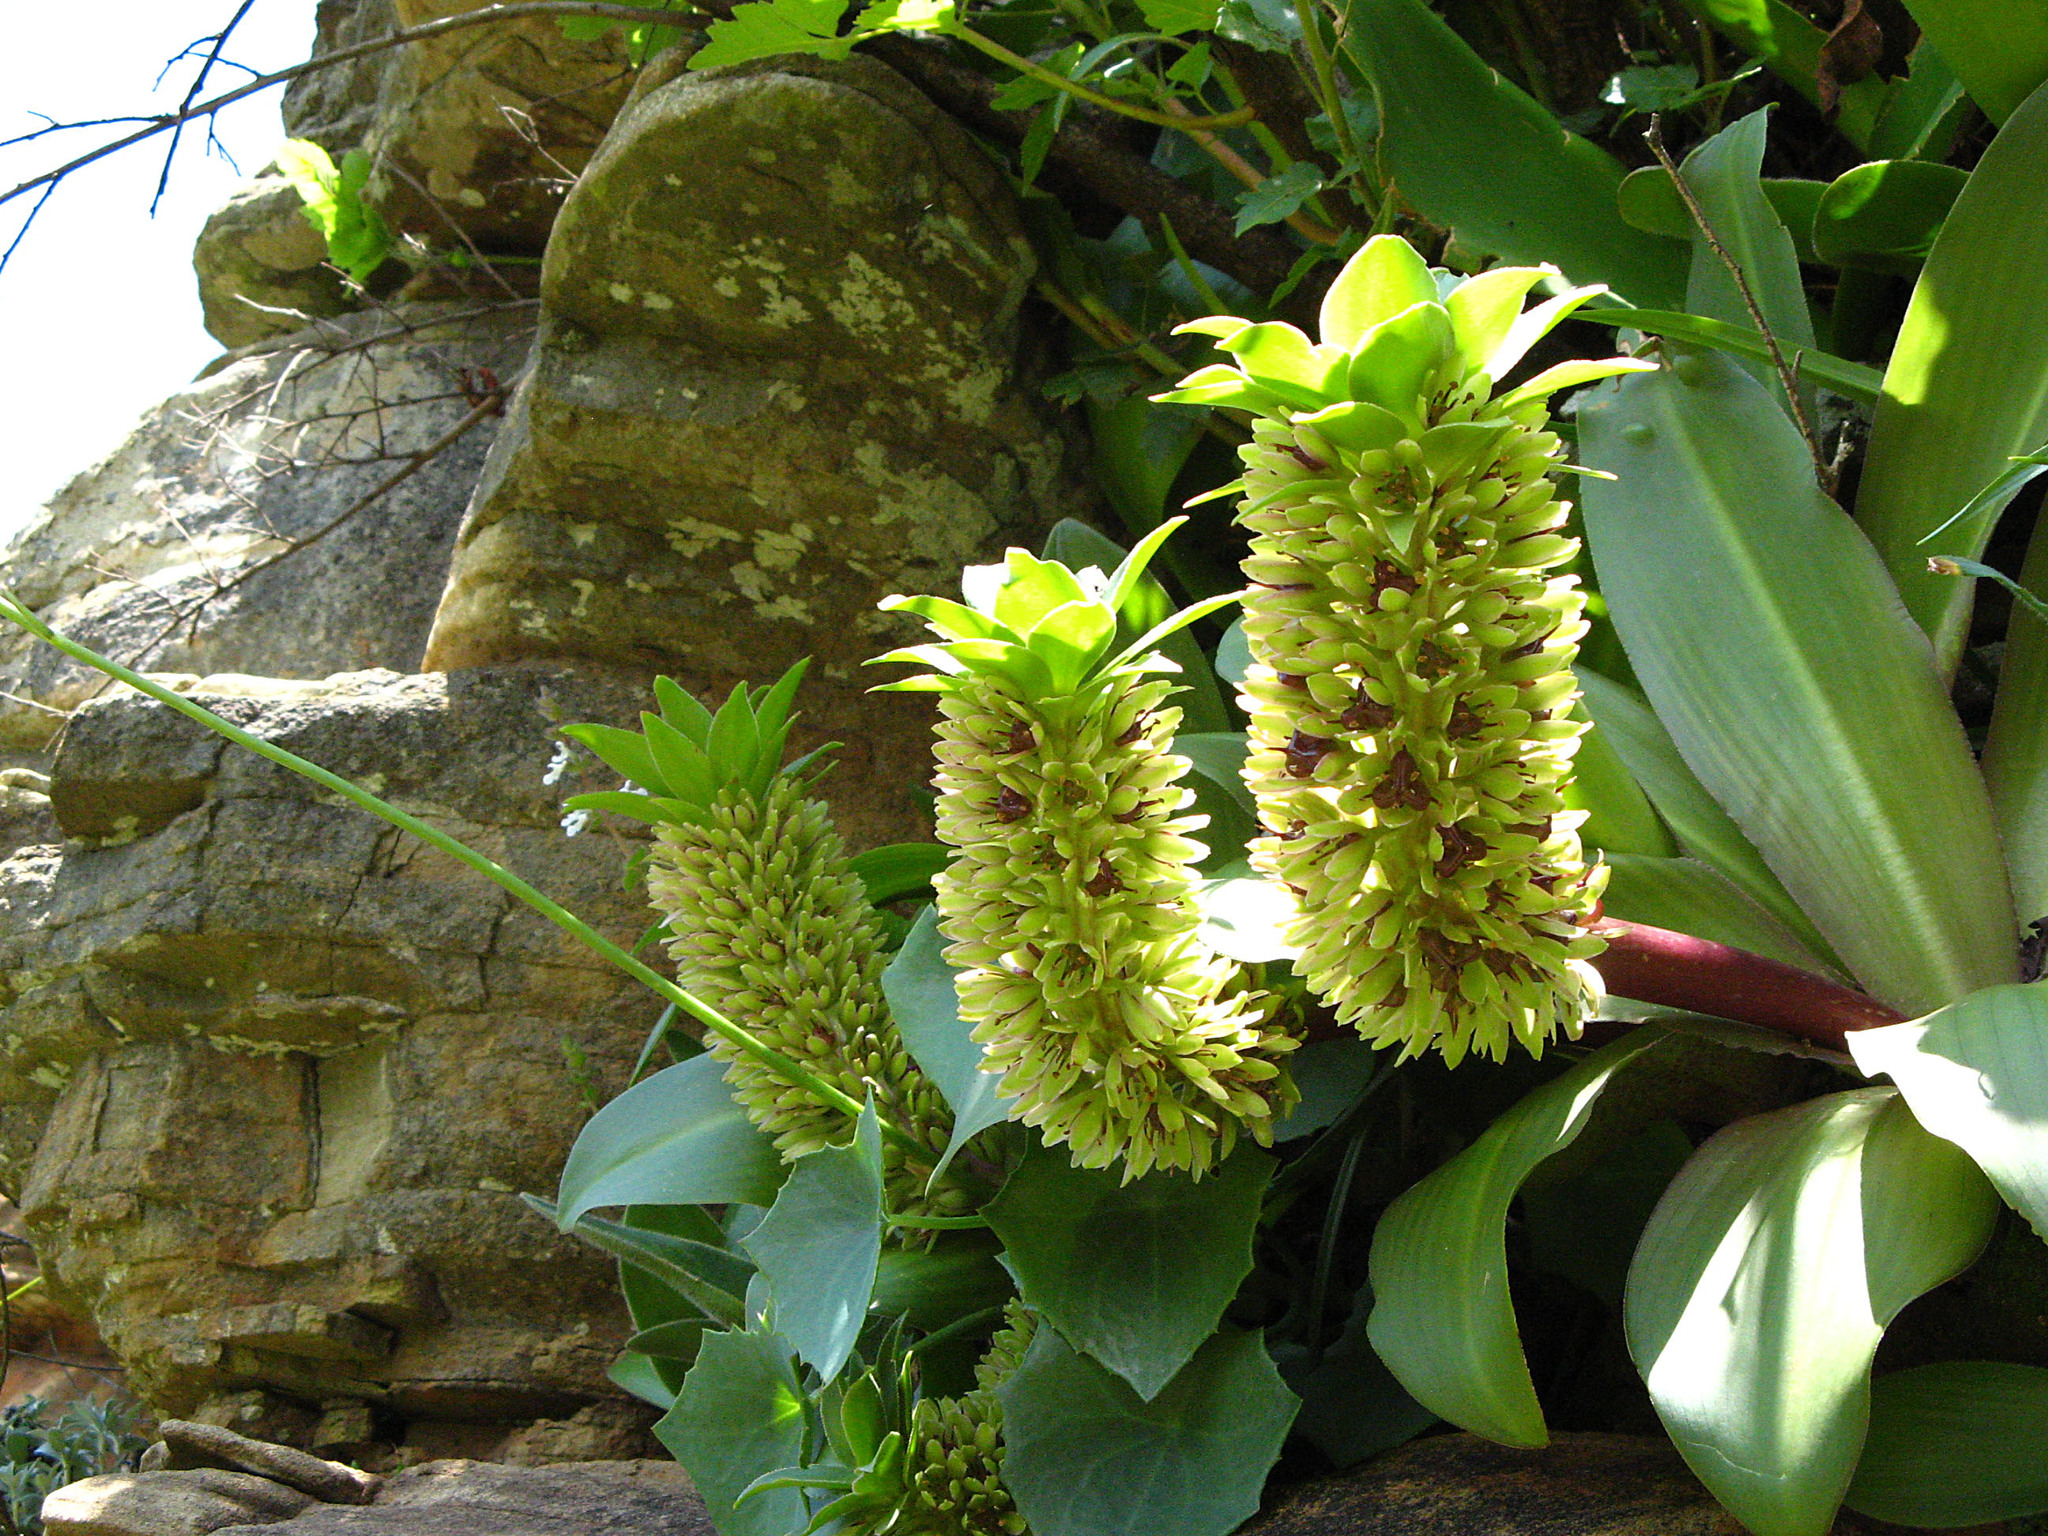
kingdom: Plantae
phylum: Tracheophyta
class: Liliopsida
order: Asparagales
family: Asparagaceae
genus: Eucomis
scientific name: Eucomis humilis
